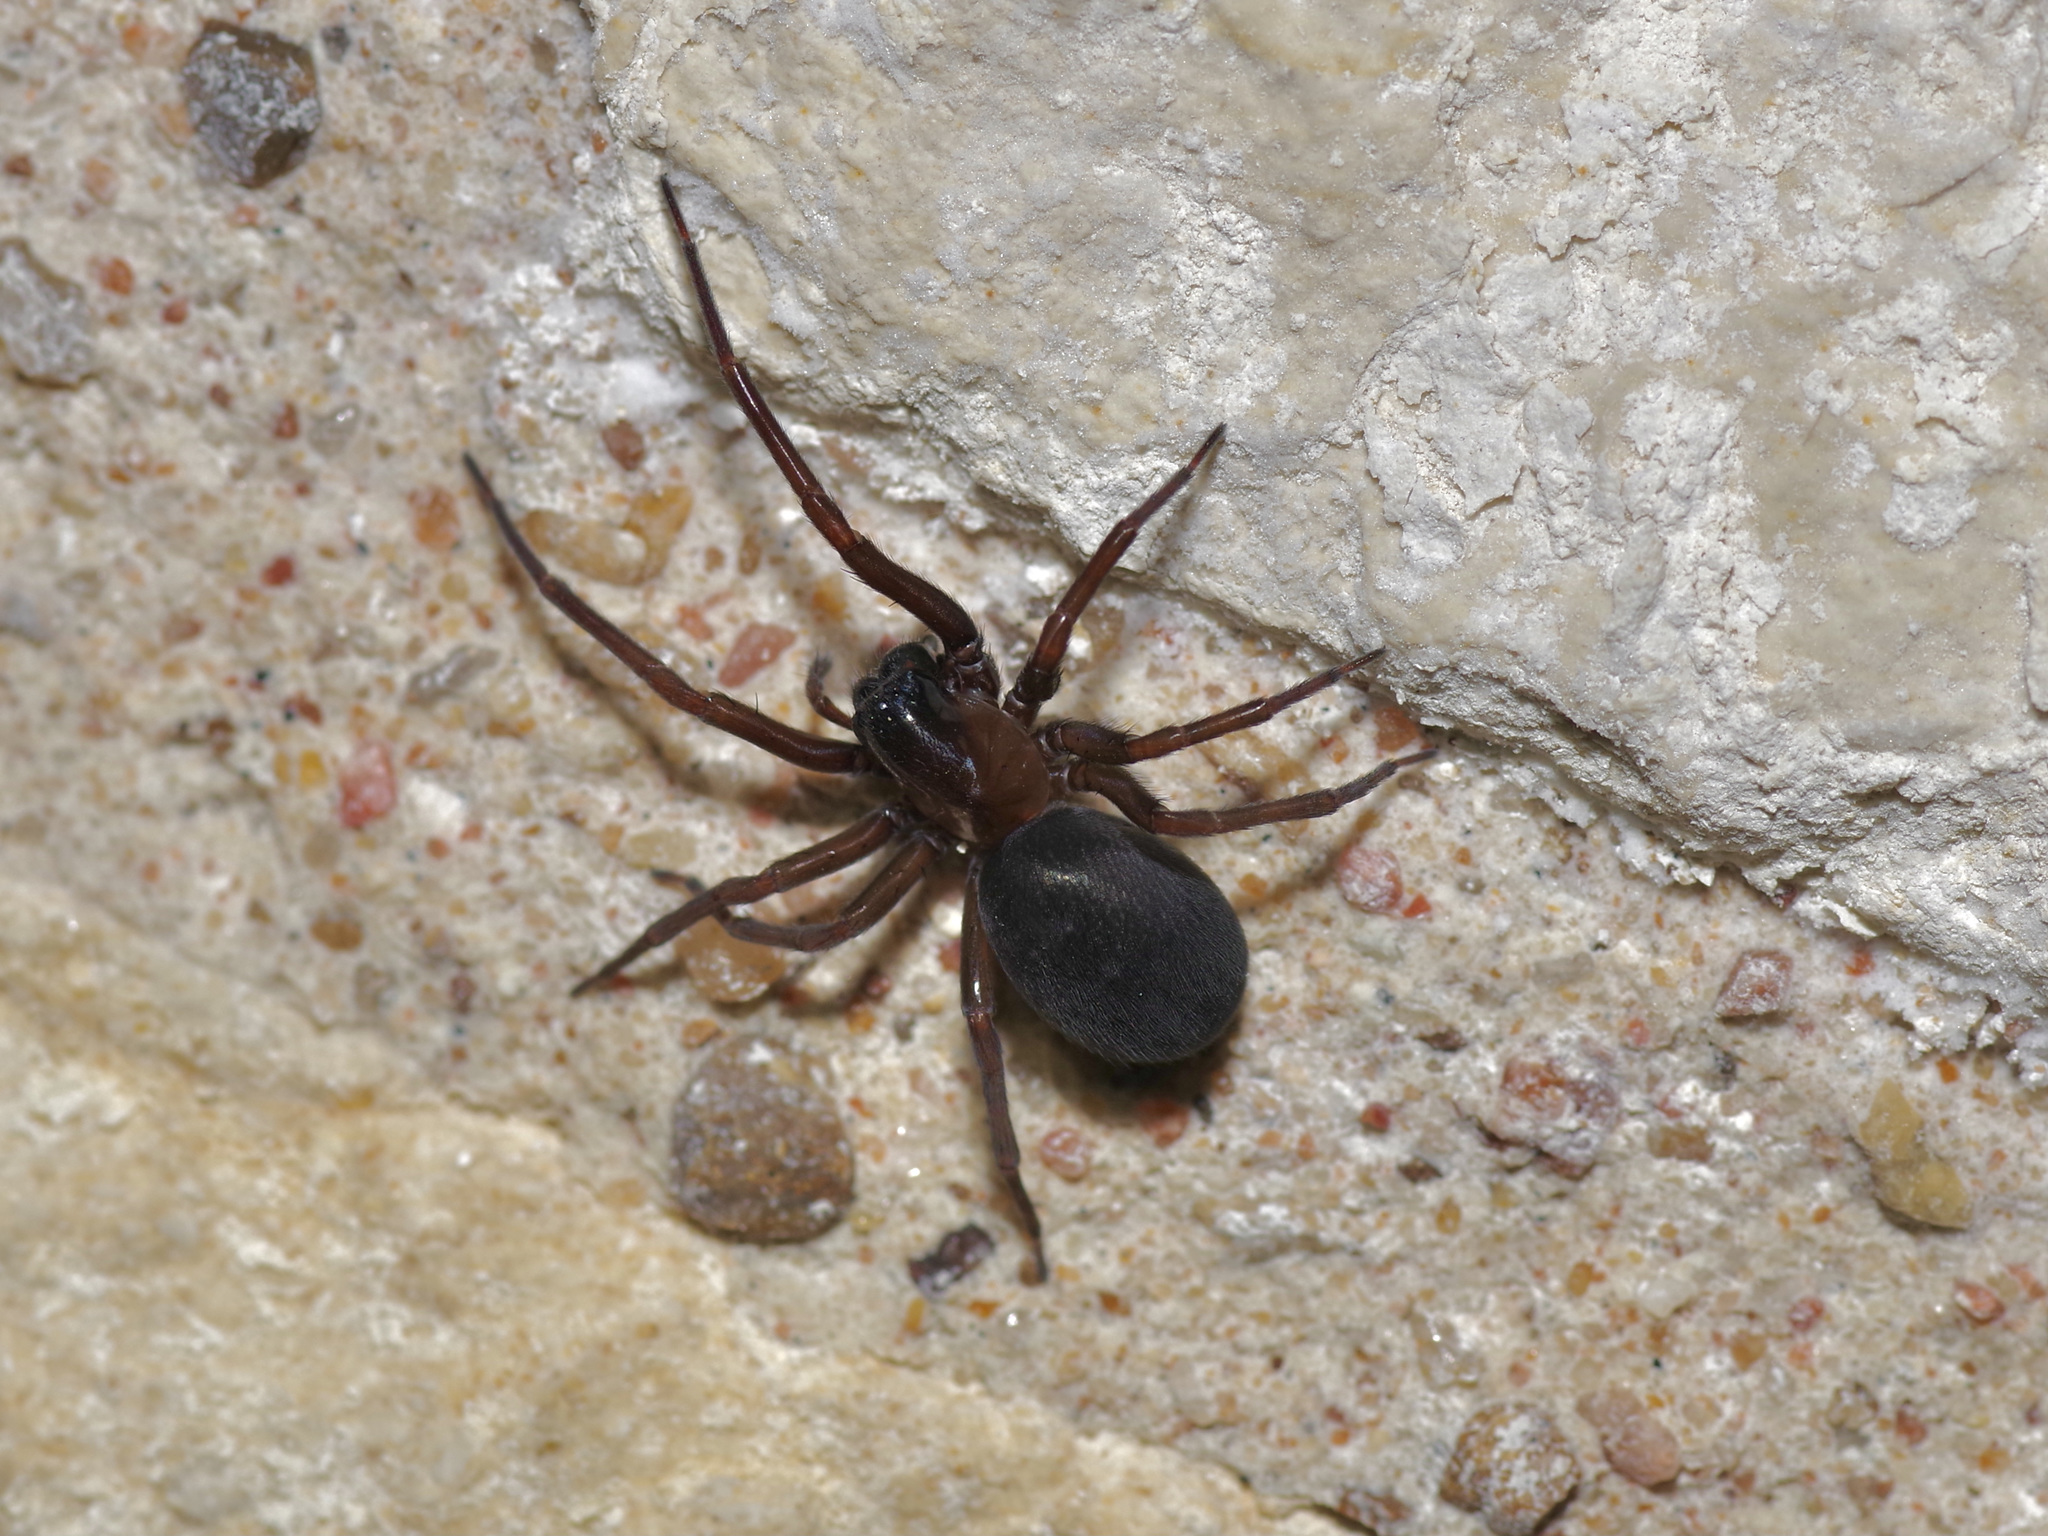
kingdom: Animalia
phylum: Arthropoda
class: Arachnida
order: Araneae
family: Desidae
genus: Metaltella
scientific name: Metaltella simoni
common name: Cribellate spider
